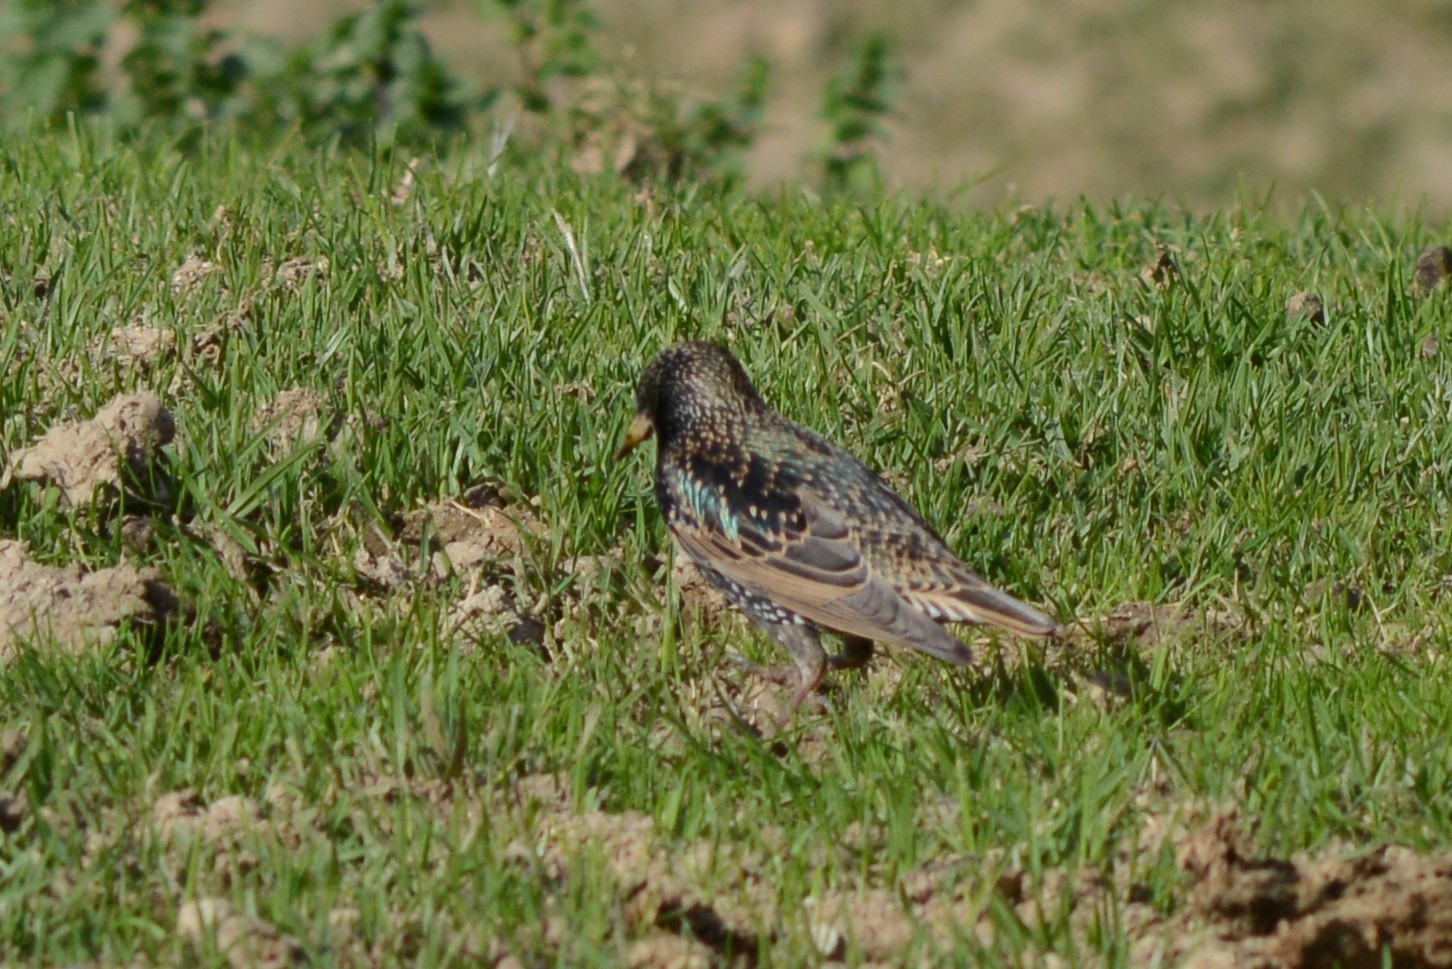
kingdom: Animalia
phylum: Chordata
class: Aves
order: Passeriformes
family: Sturnidae
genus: Sturnus
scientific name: Sturnus vulgaris
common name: Common starling
